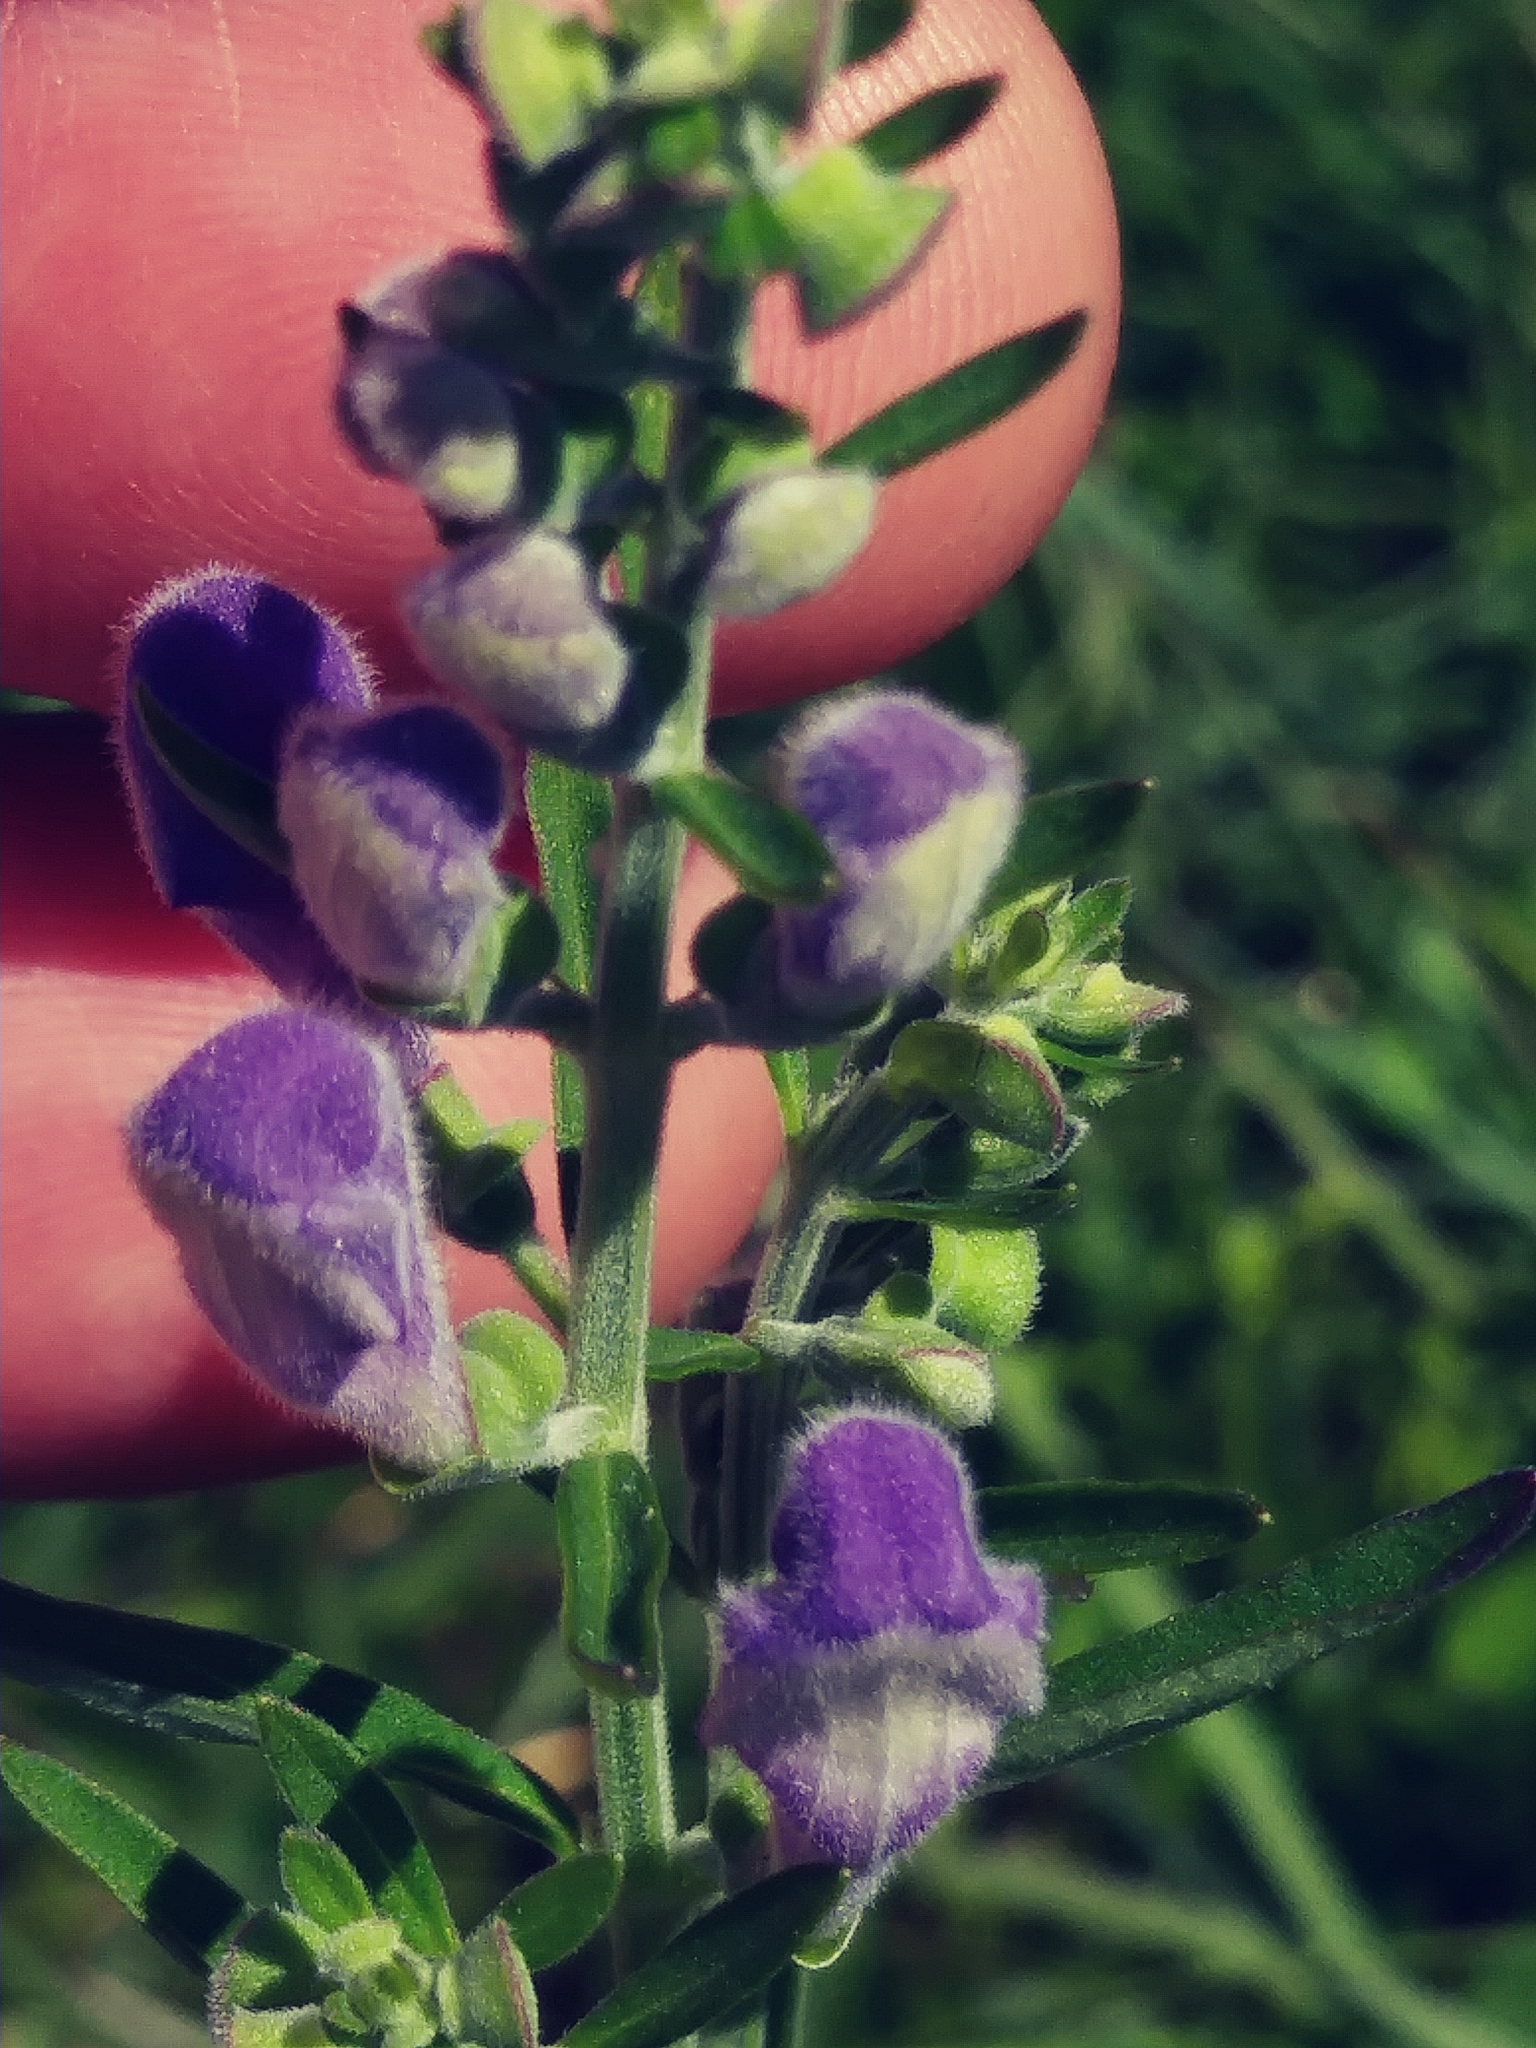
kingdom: Plantae
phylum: Tracheophyta
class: Magnoliopsida
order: Lamiales
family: Lamiaceae
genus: Scutellaria
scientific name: Scutellaria integrifolia
